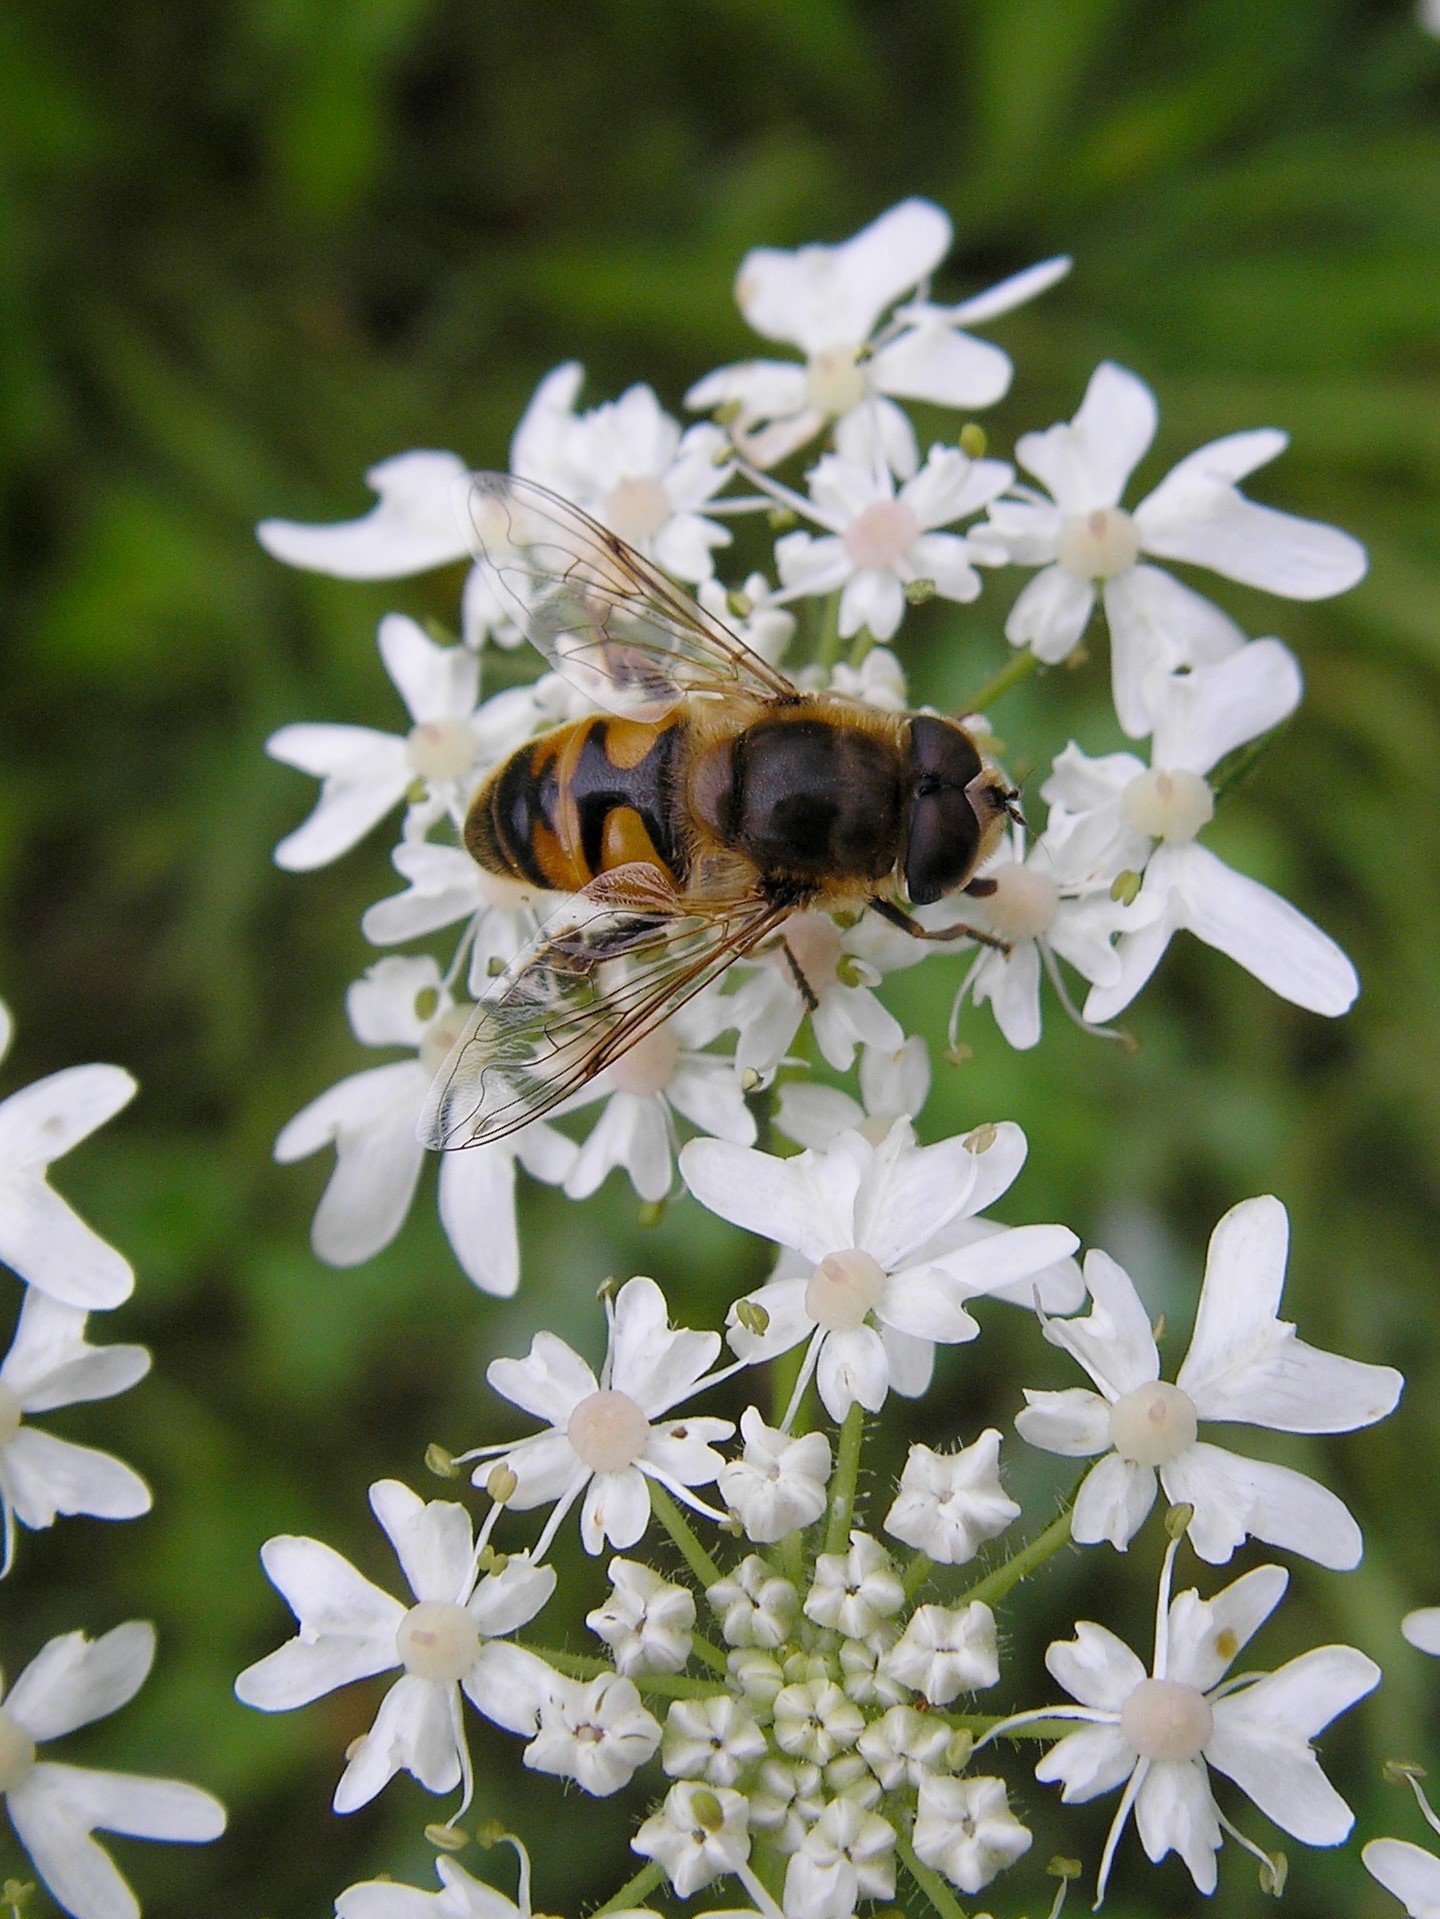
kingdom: Animalia
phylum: Arthropoda
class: Insecta
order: Diptera
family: Syrphidae
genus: Eristalis
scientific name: Eristalis tenax
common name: Drone fly
